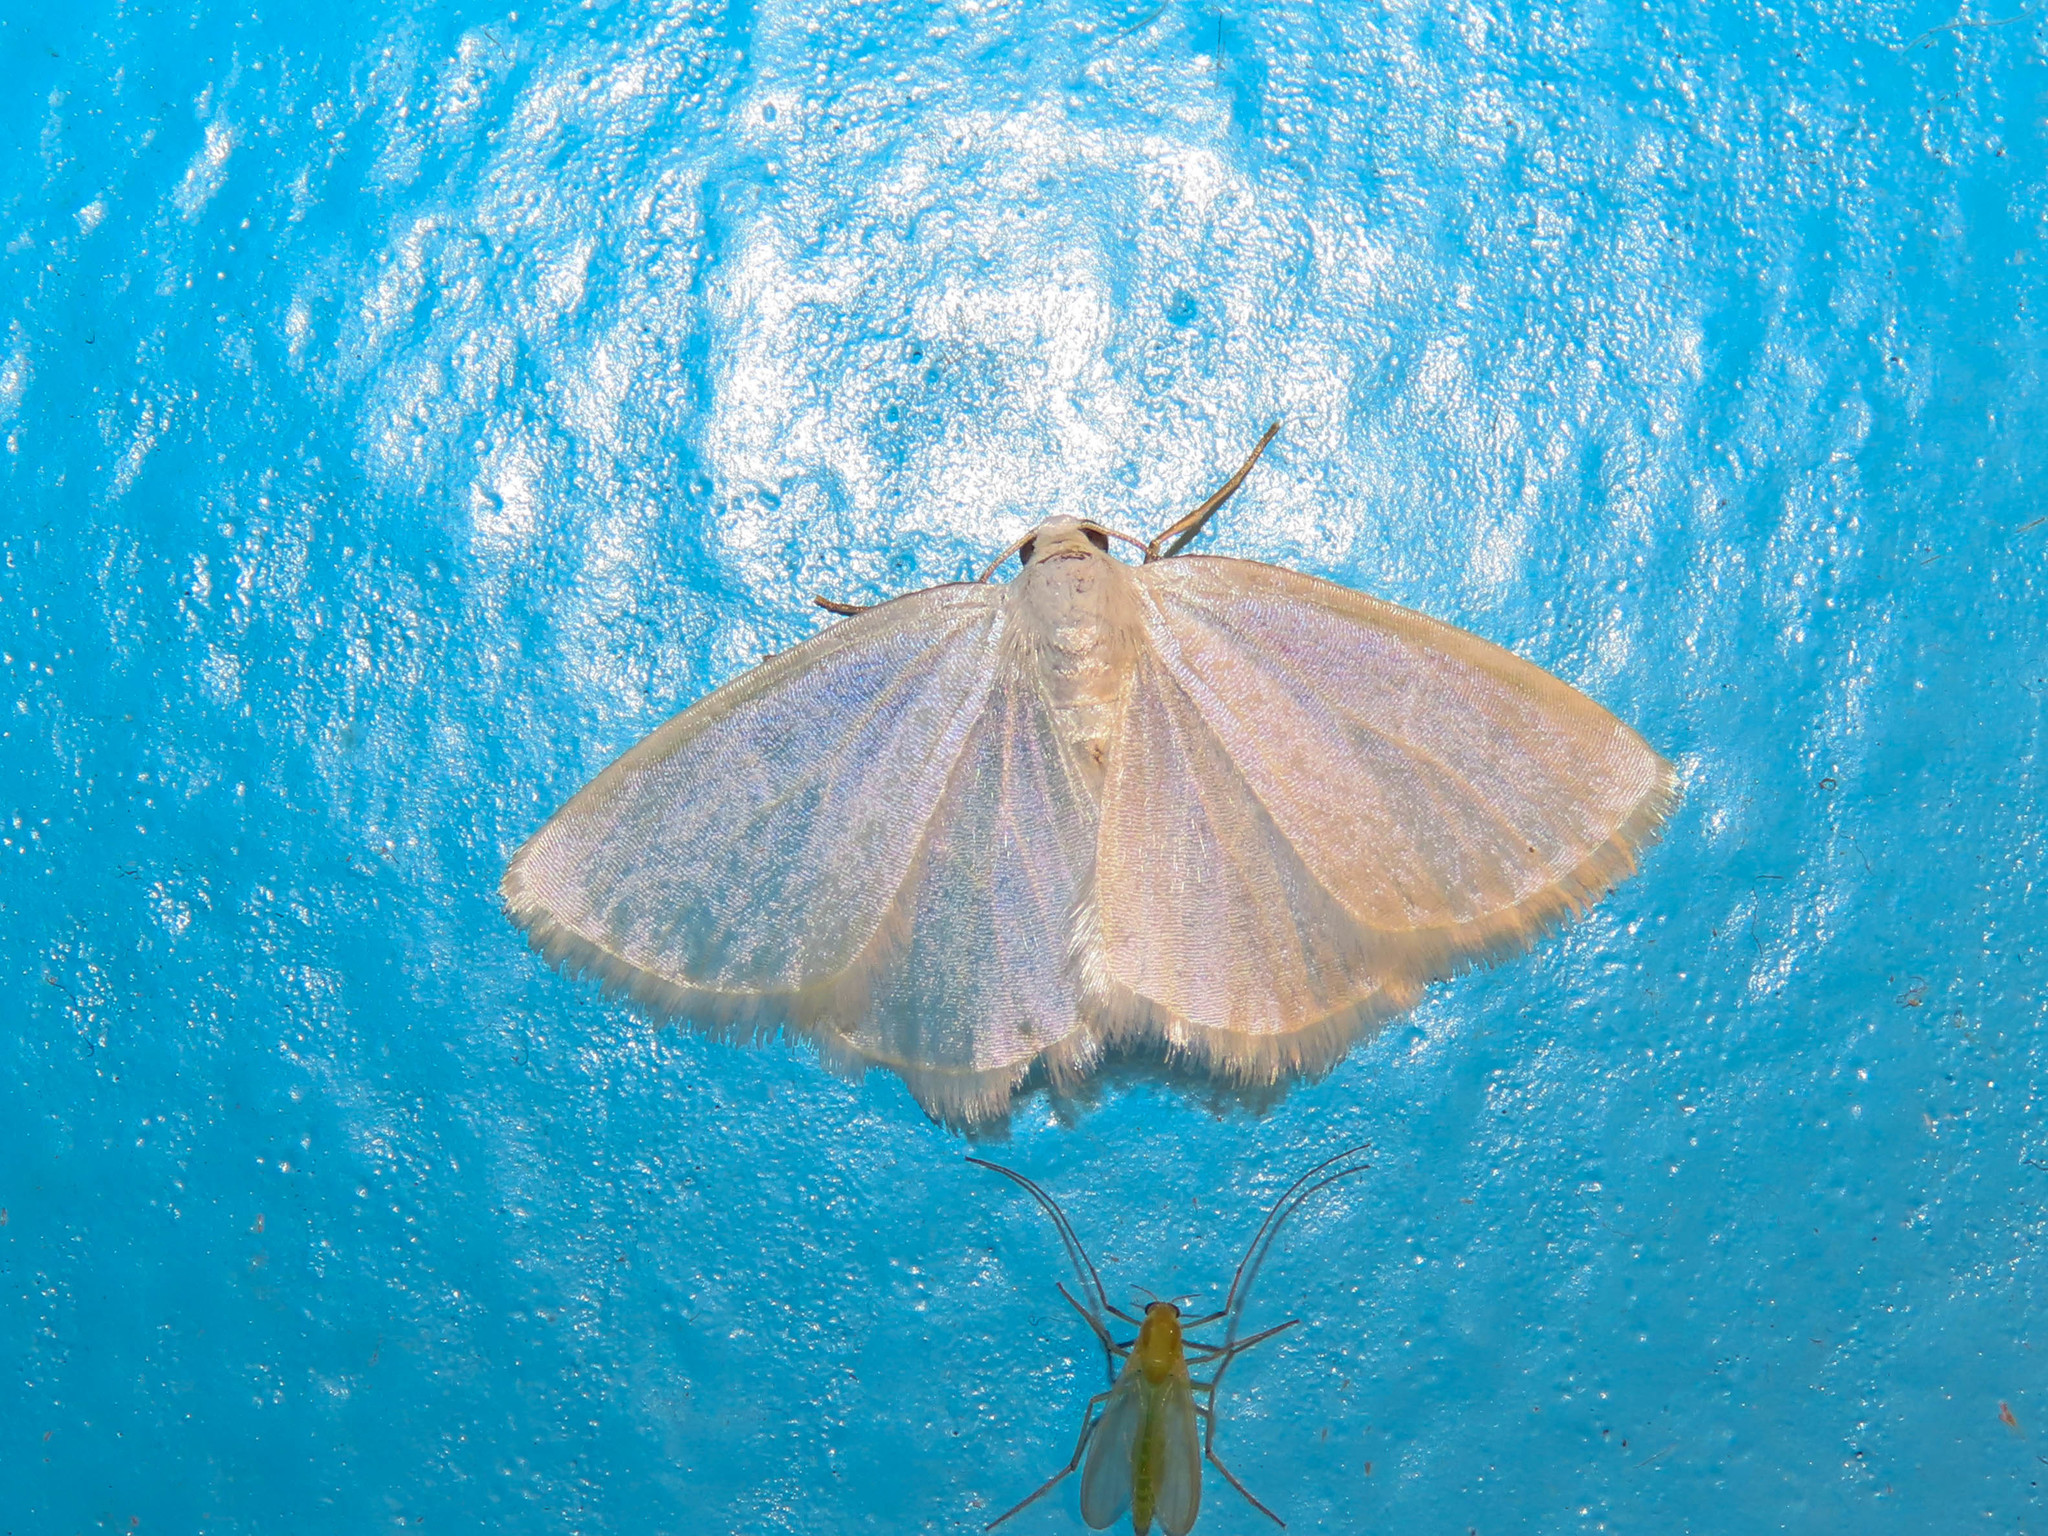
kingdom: Animalia
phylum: Arthropoda
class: Insecta
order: Lepidoptera
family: Geometridae
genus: Lomographa
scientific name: Lomographa vestaliata
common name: White spring moth
